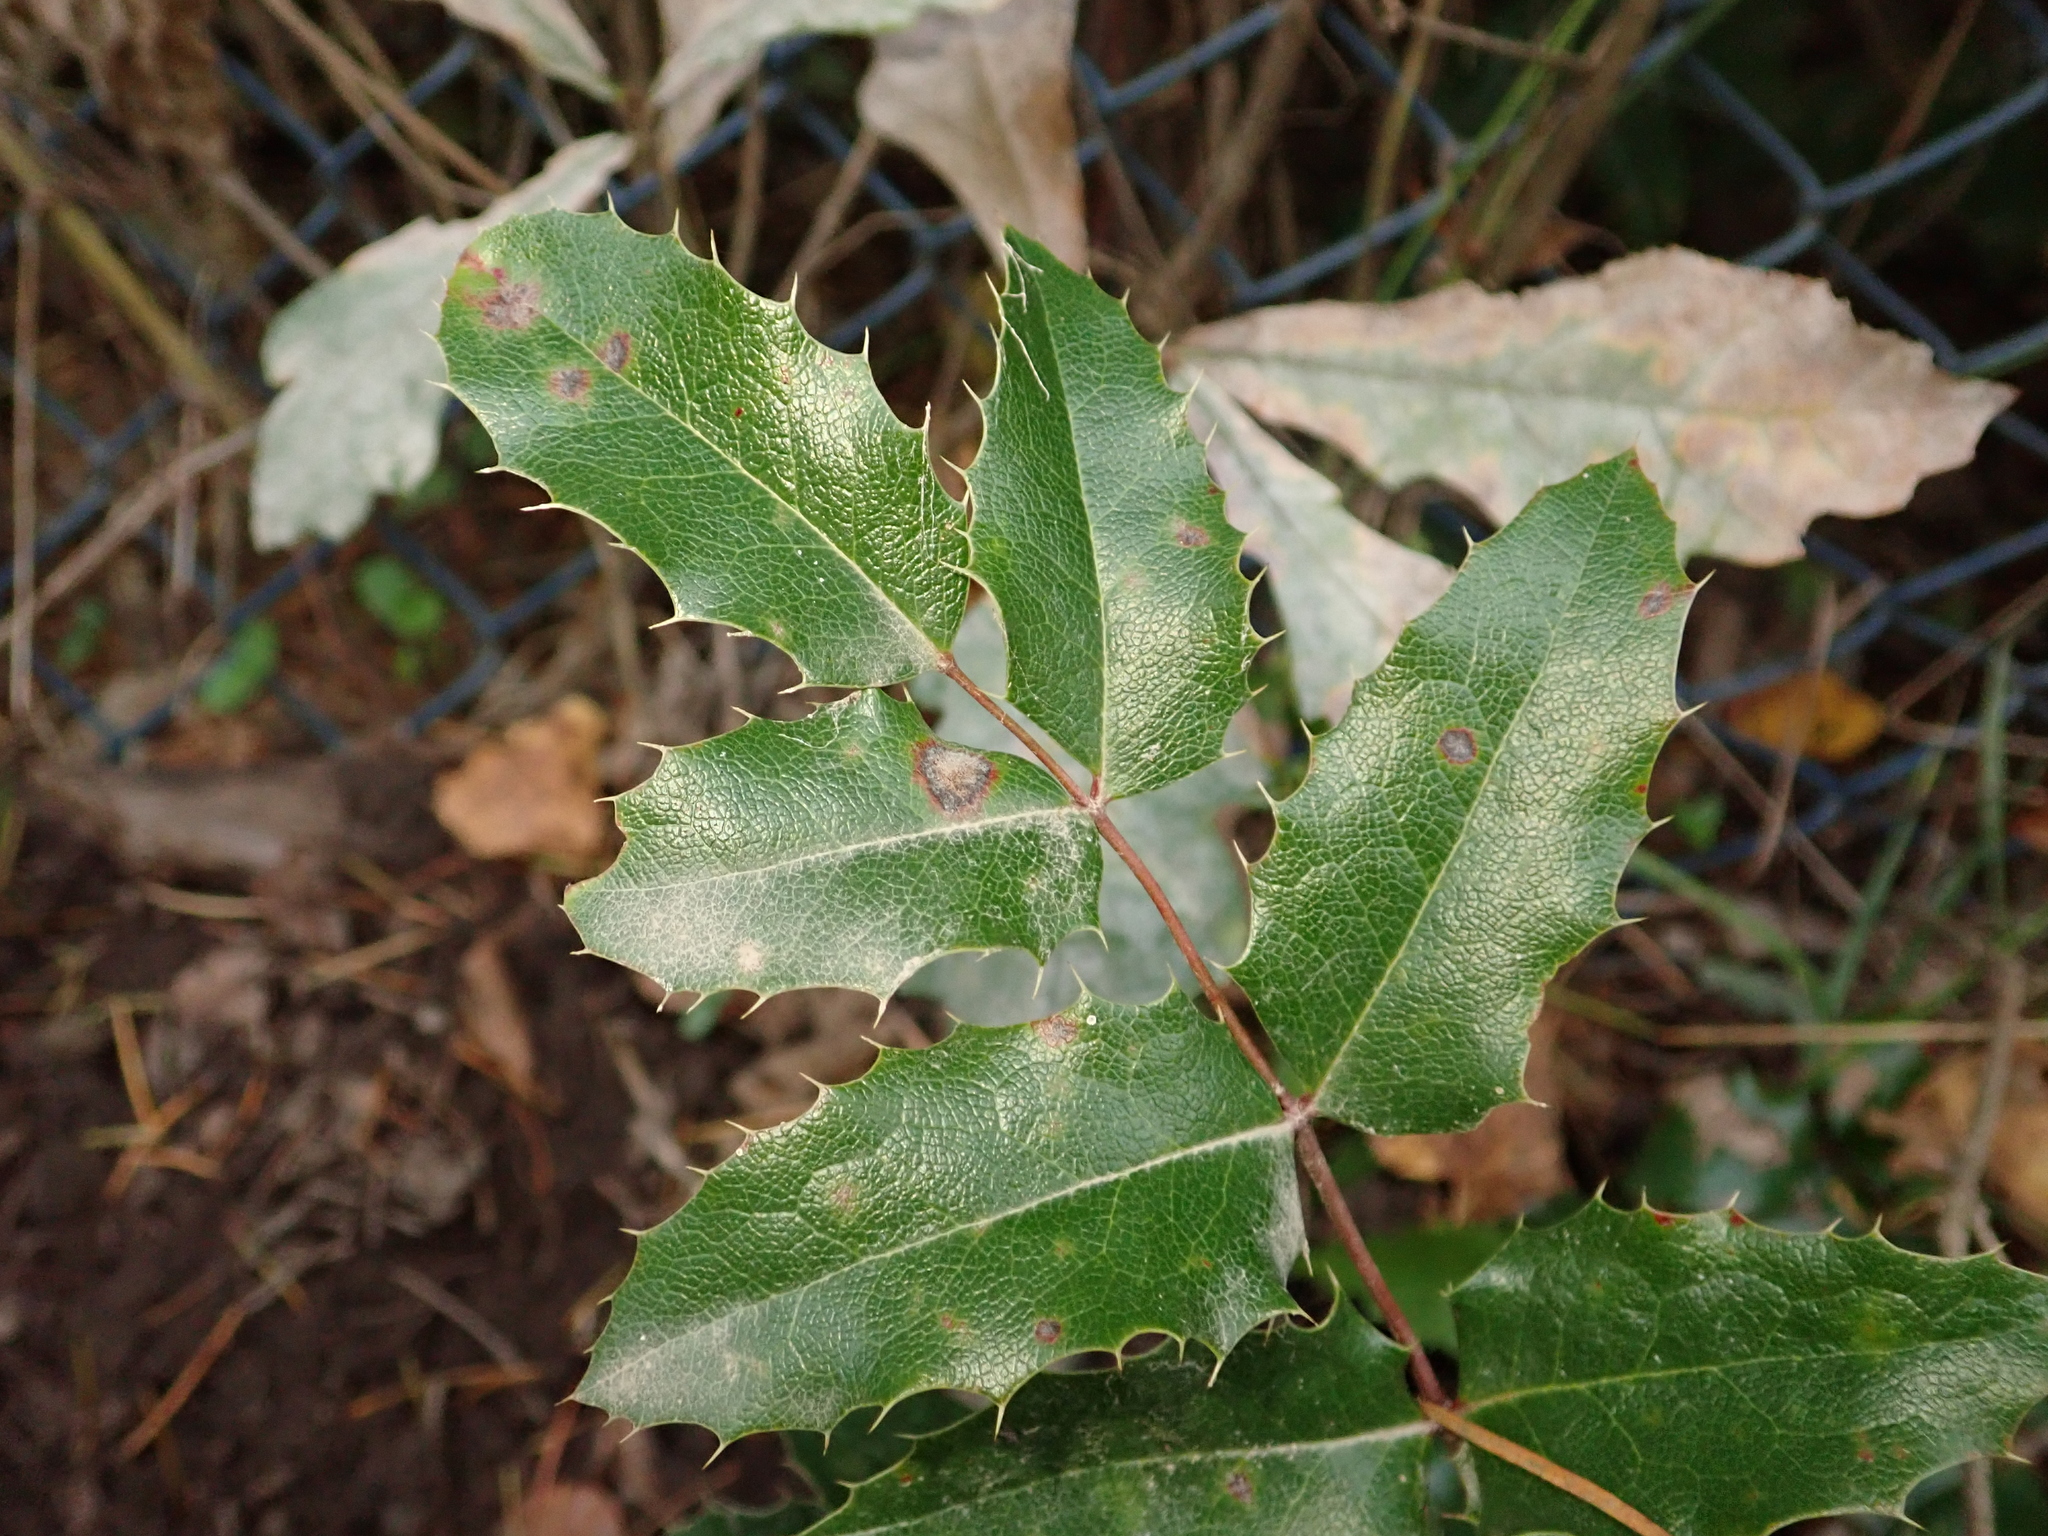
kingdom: Plantae
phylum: Tracheophyta
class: Magnoliopsida
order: Ranunculales
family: Berberidaceae
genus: Mahonia
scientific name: Mahonia aquifolium
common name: Oregon-grape
